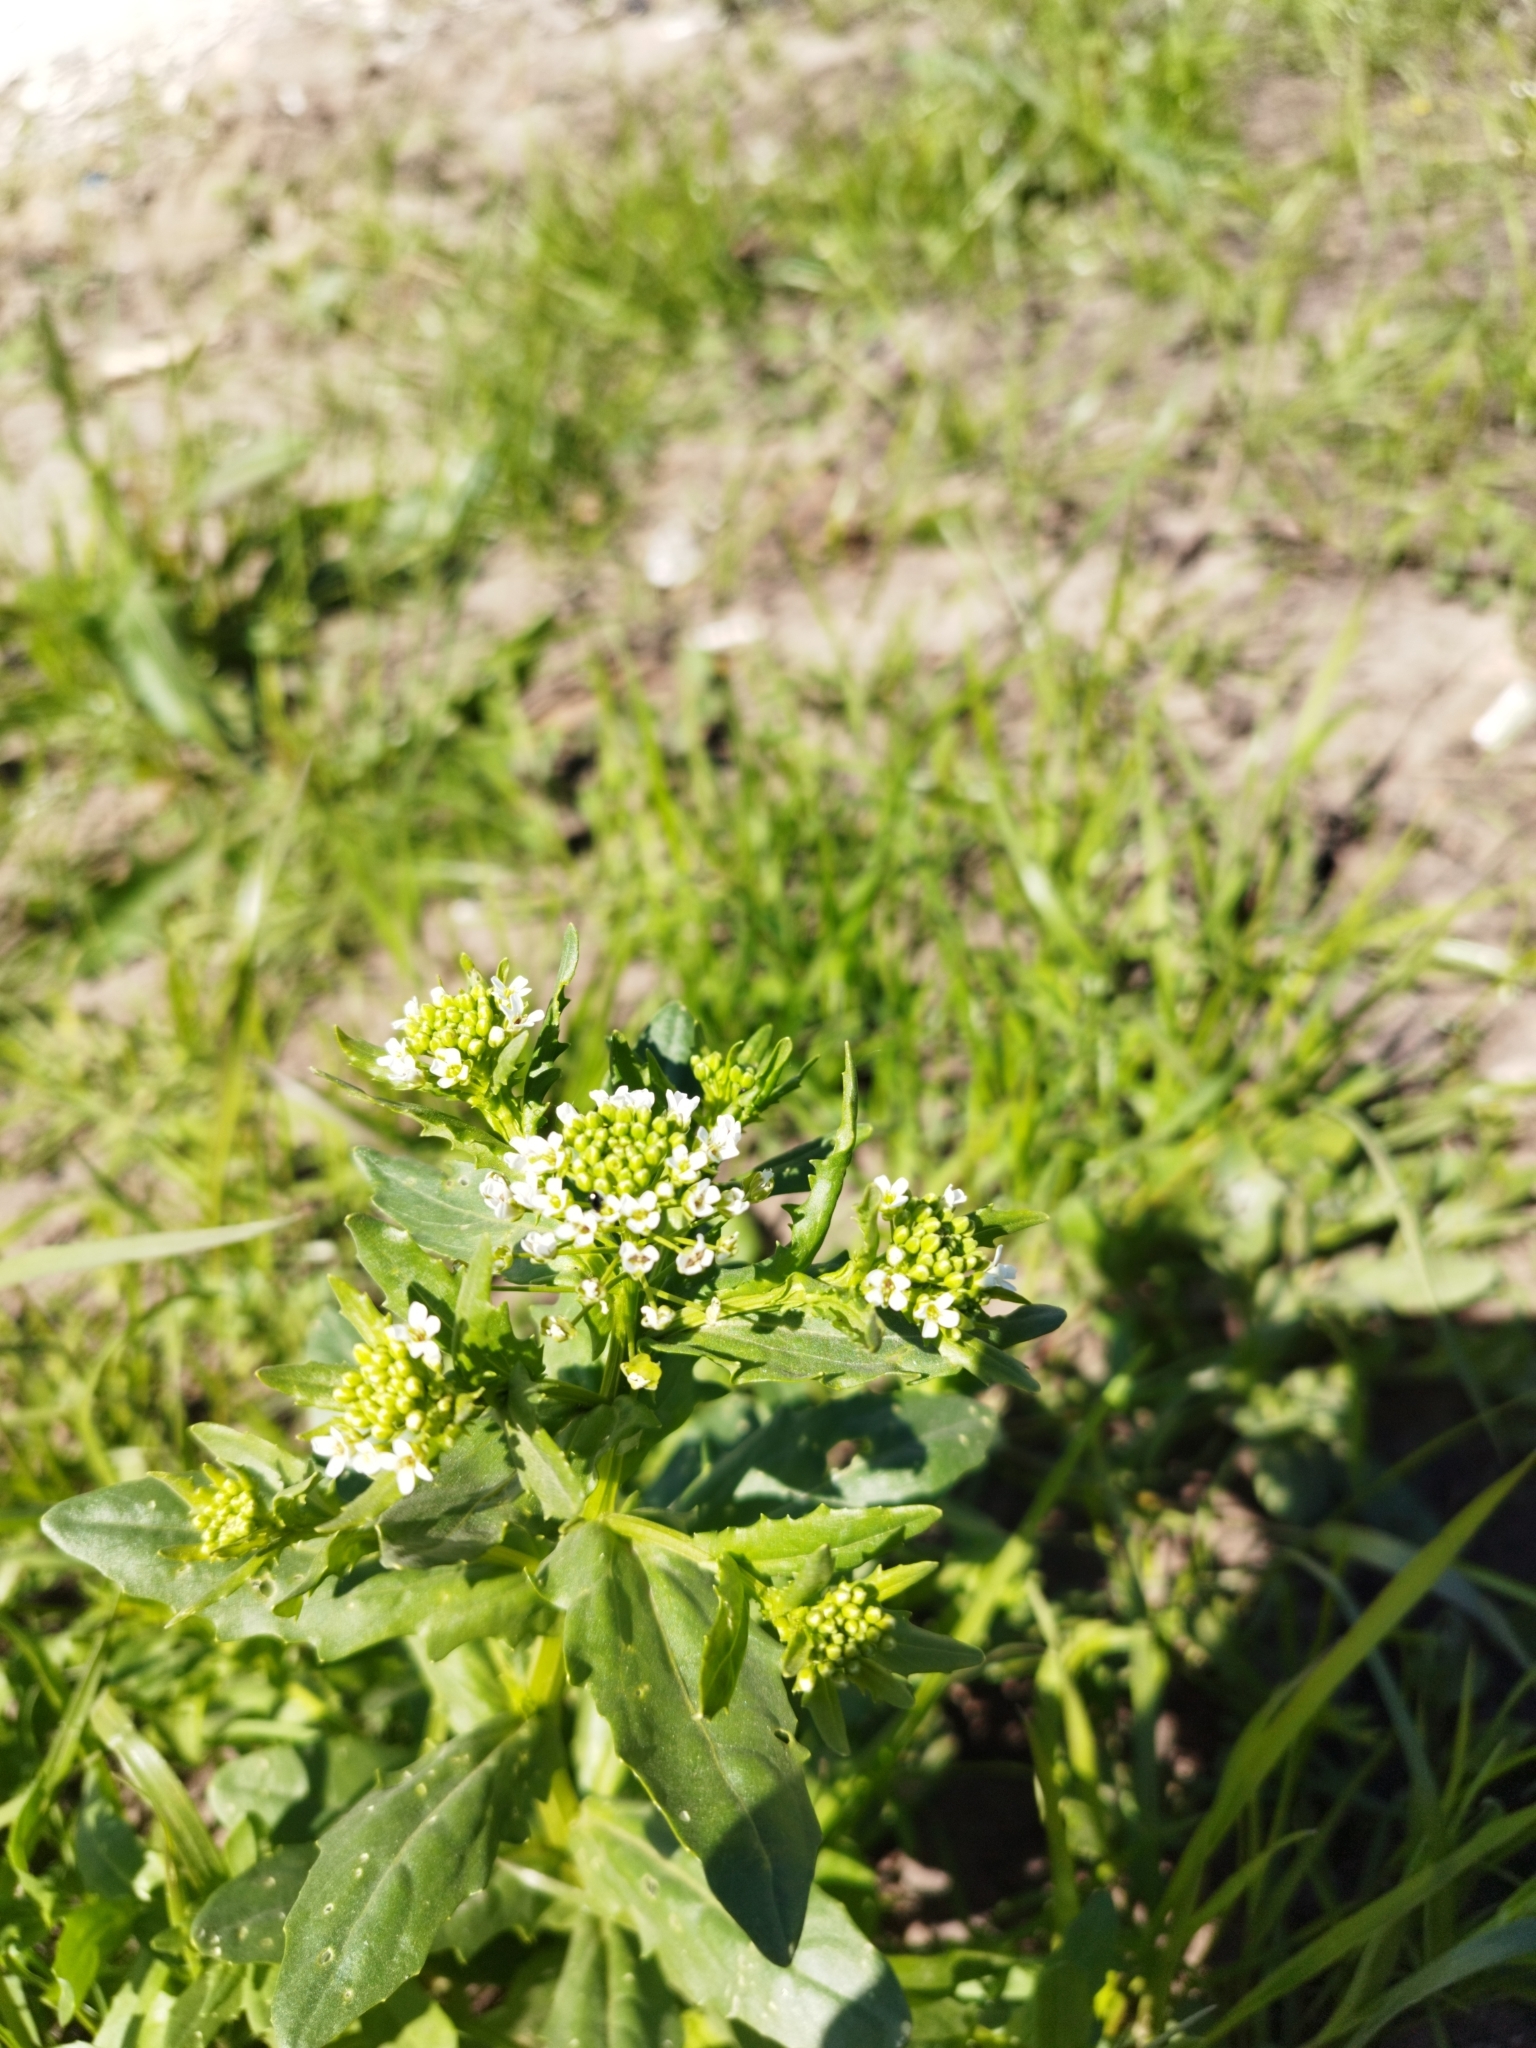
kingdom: Plantae
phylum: Tracheophyta
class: Magnoliopsida
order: Brassicales
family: Brassicaceae
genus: Thlaspi
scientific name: Thlaspi arvense
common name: Field pennycress
